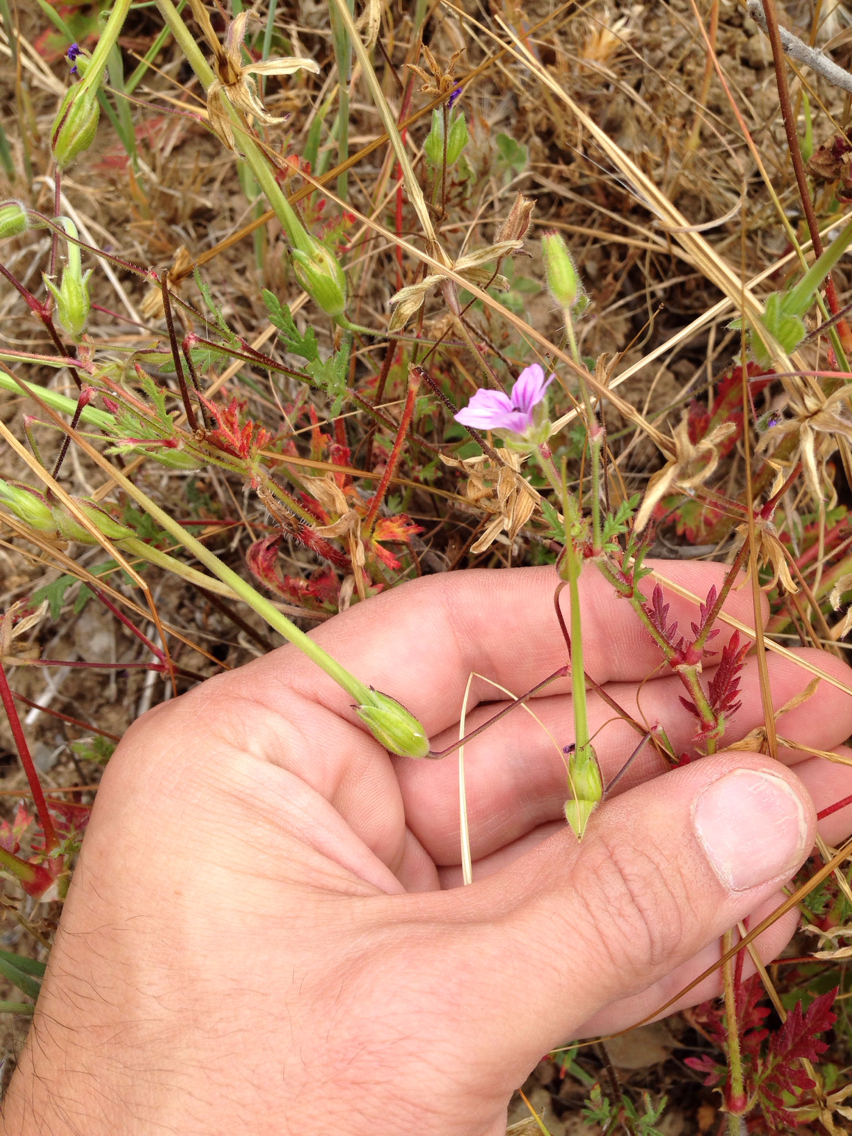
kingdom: Plantae
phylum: Tracheophyta
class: Magnoliopsida
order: Geraniales
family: Geraniaceae
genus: Erodium
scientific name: Erodium botrys
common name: Mediterranean stork's-bill
